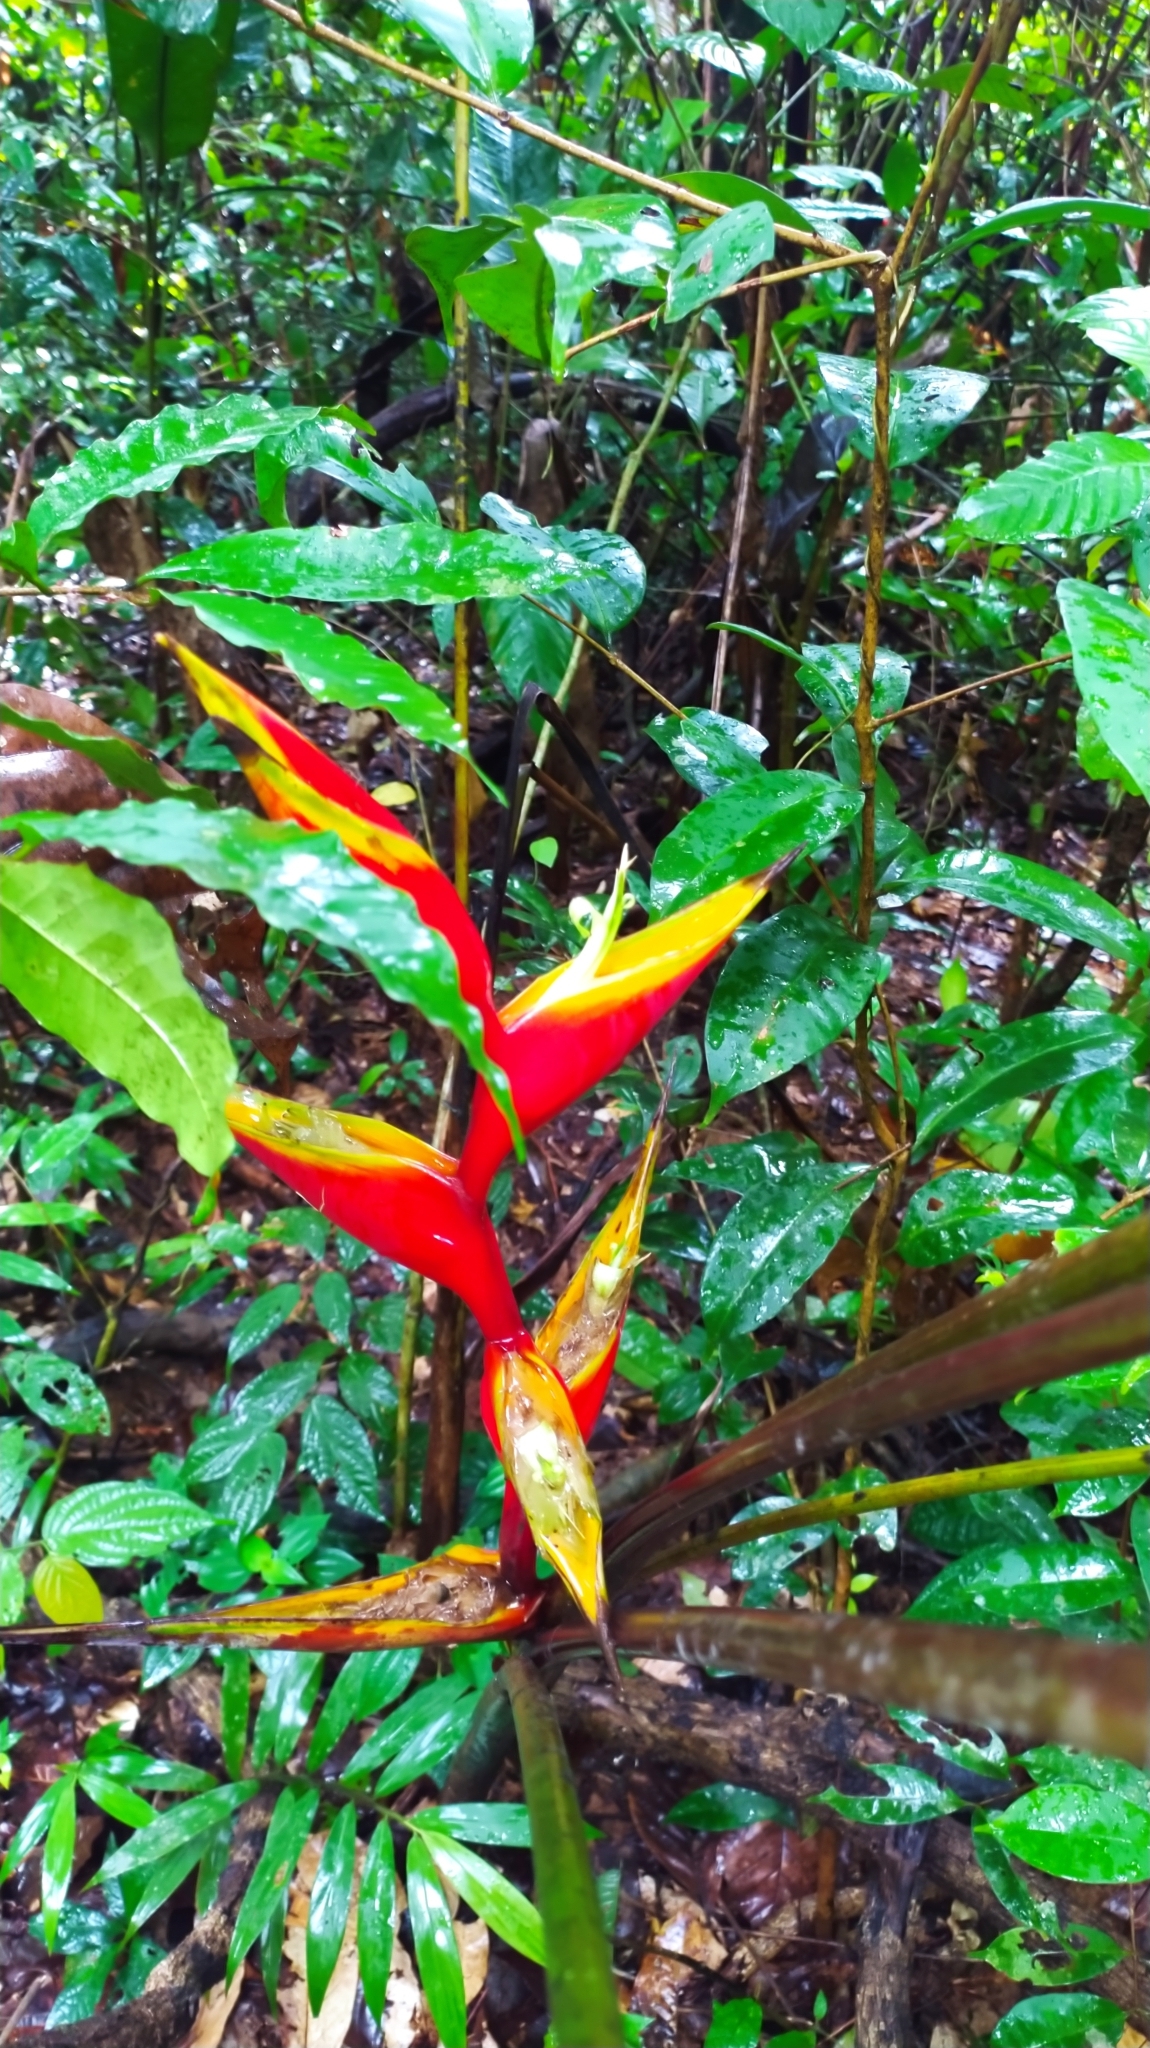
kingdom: Plantae
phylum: Tracheophyta
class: Liliopsida
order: Zingiberales
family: Heliconiaceae
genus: Heliconia
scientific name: Heliconia bihai
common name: Macaw flower
